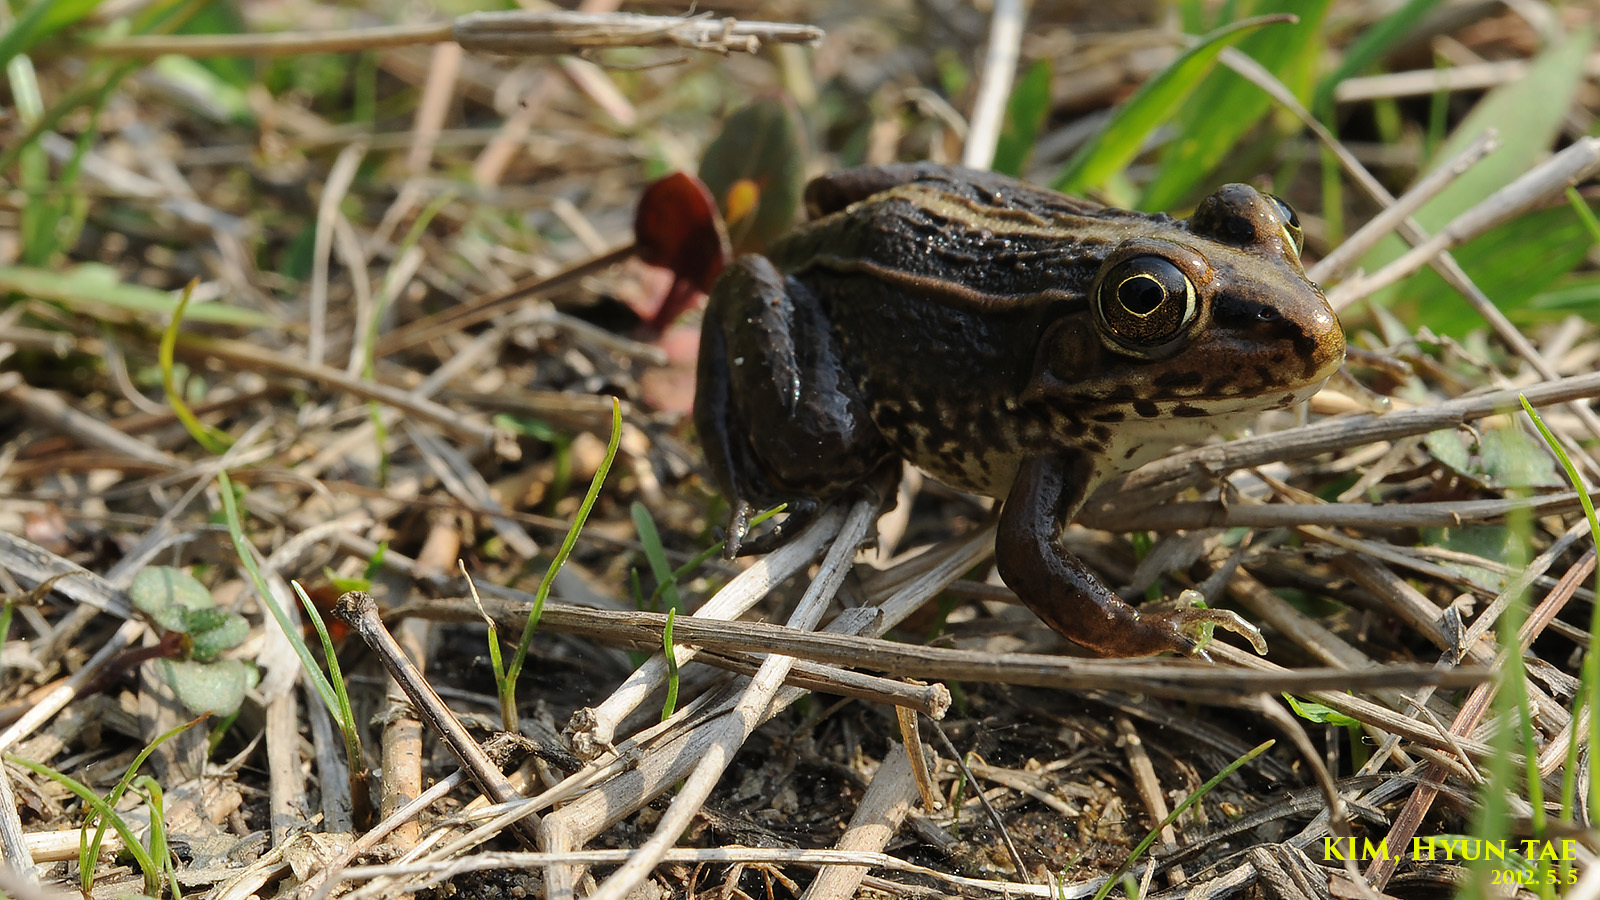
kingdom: Animalia
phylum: Chordata
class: Amphibia
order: Anura
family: Ranidae
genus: Pelophylax
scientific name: Pelophylax nigromaculatus
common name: Black-spotted pond frog
